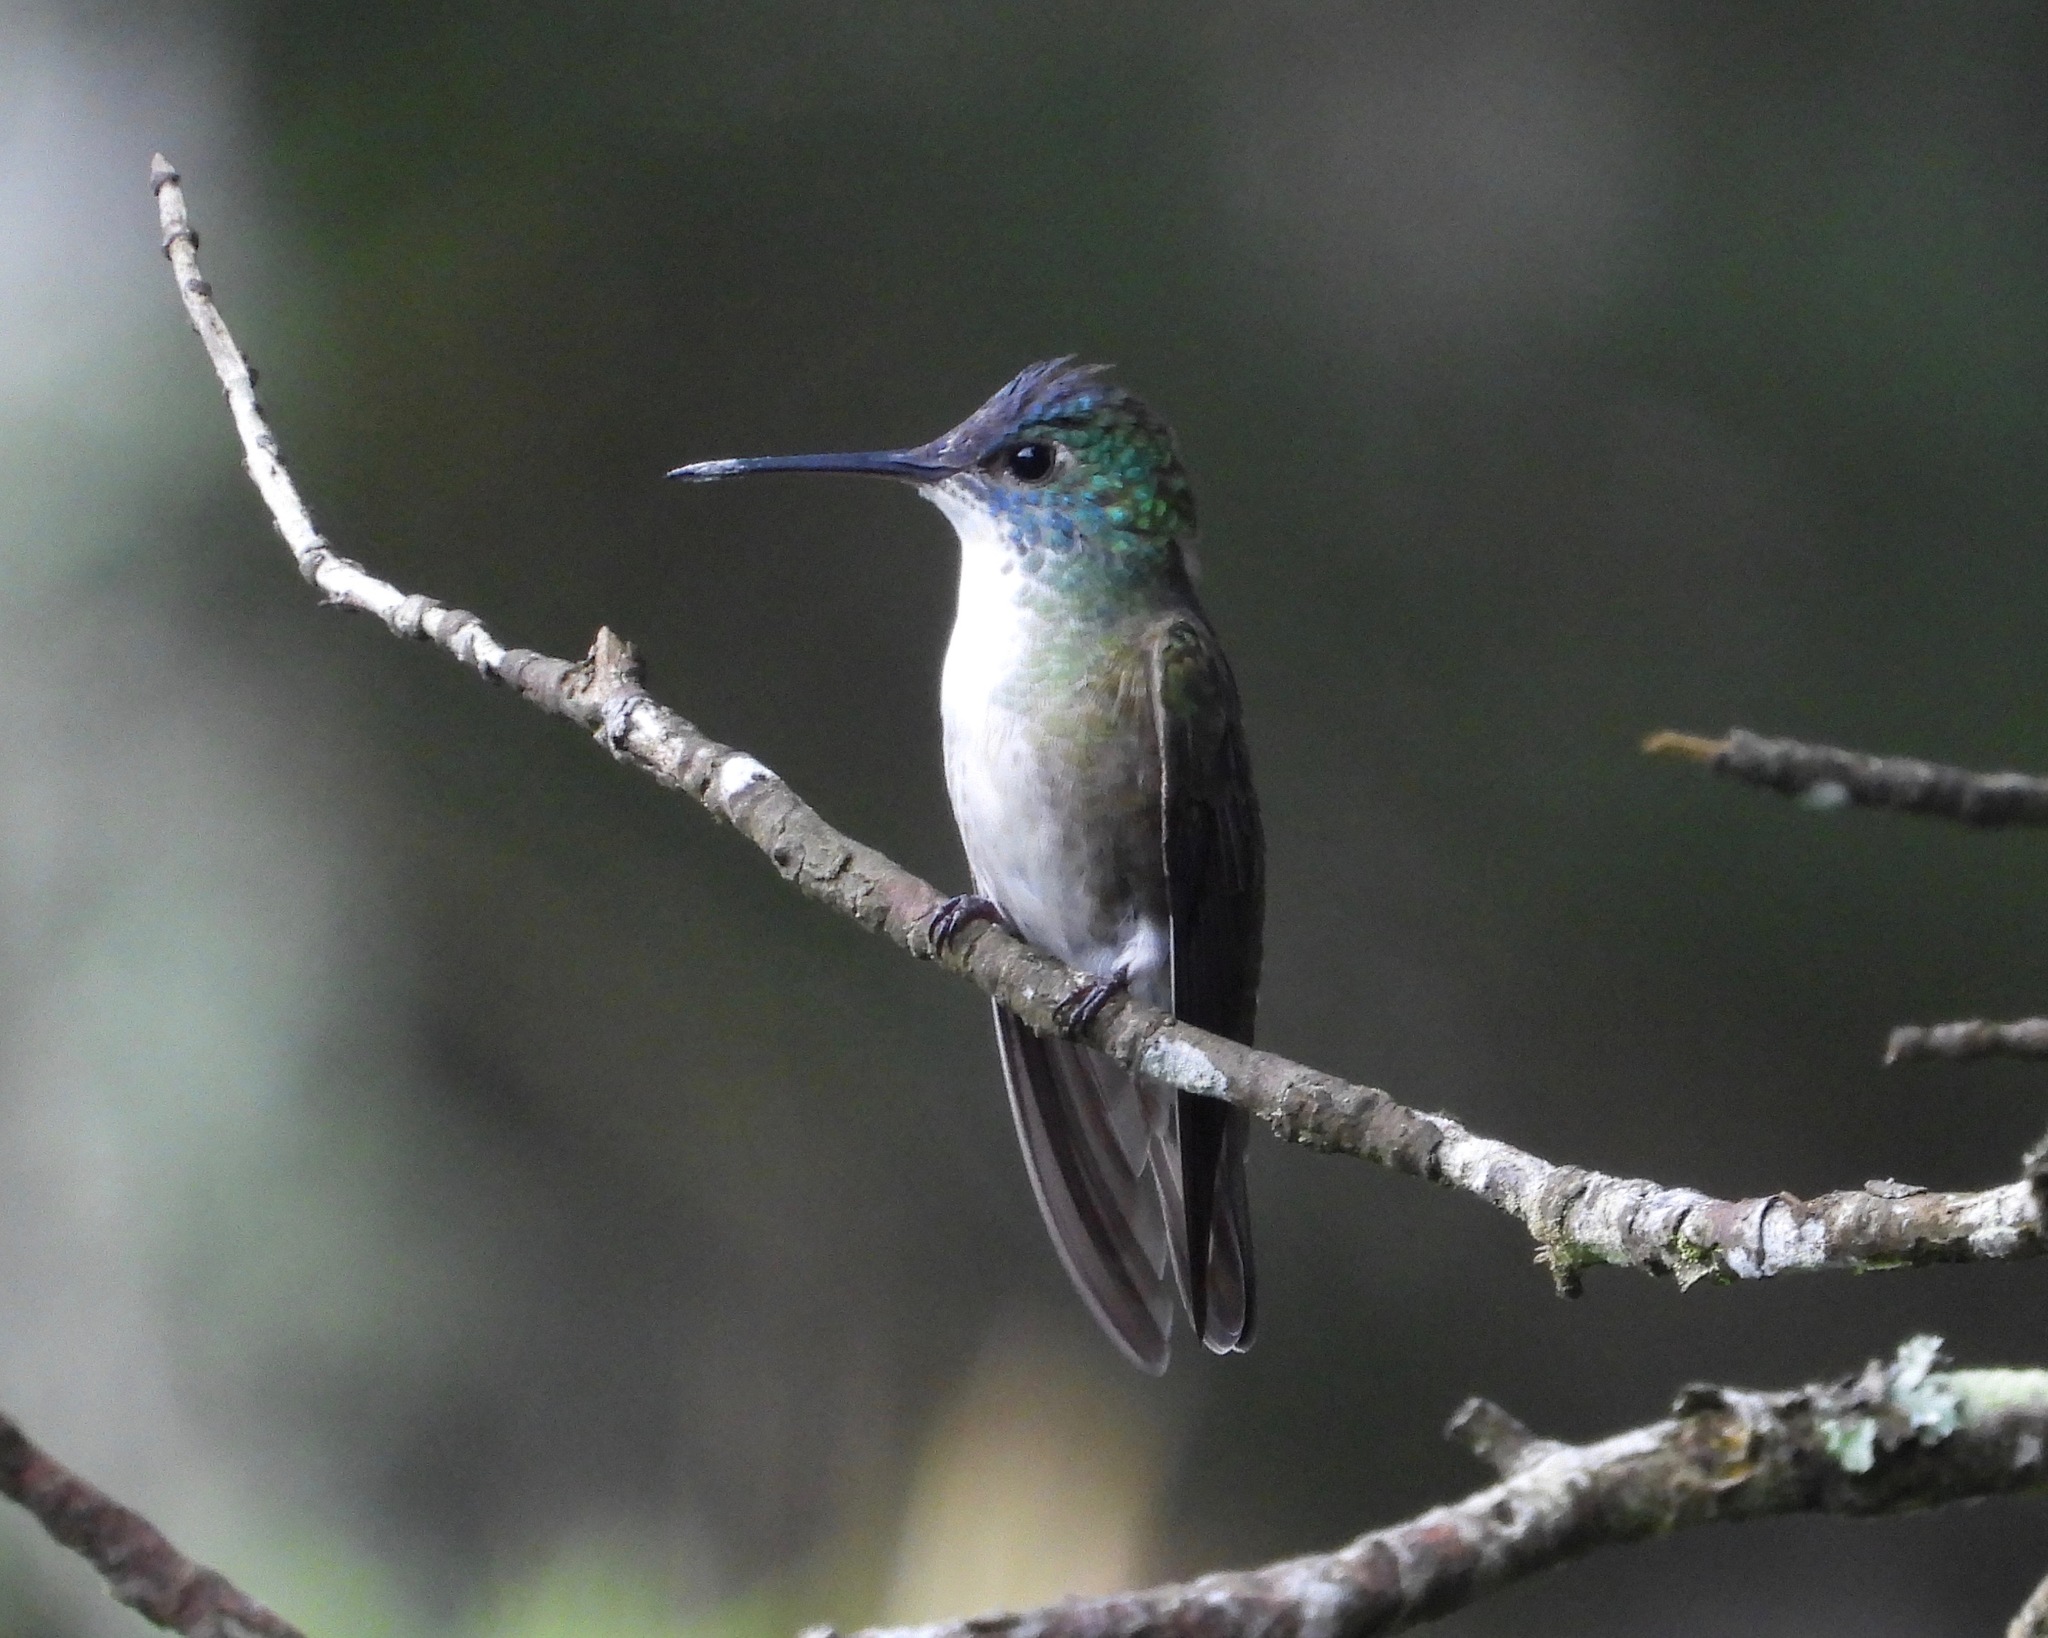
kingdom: Animalia
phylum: Chordata
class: Aves
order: Apodiformes
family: Trochilidae
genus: Saucerottia
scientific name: Saucerottia cyanocephala
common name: Azure-crowned hummingbird
